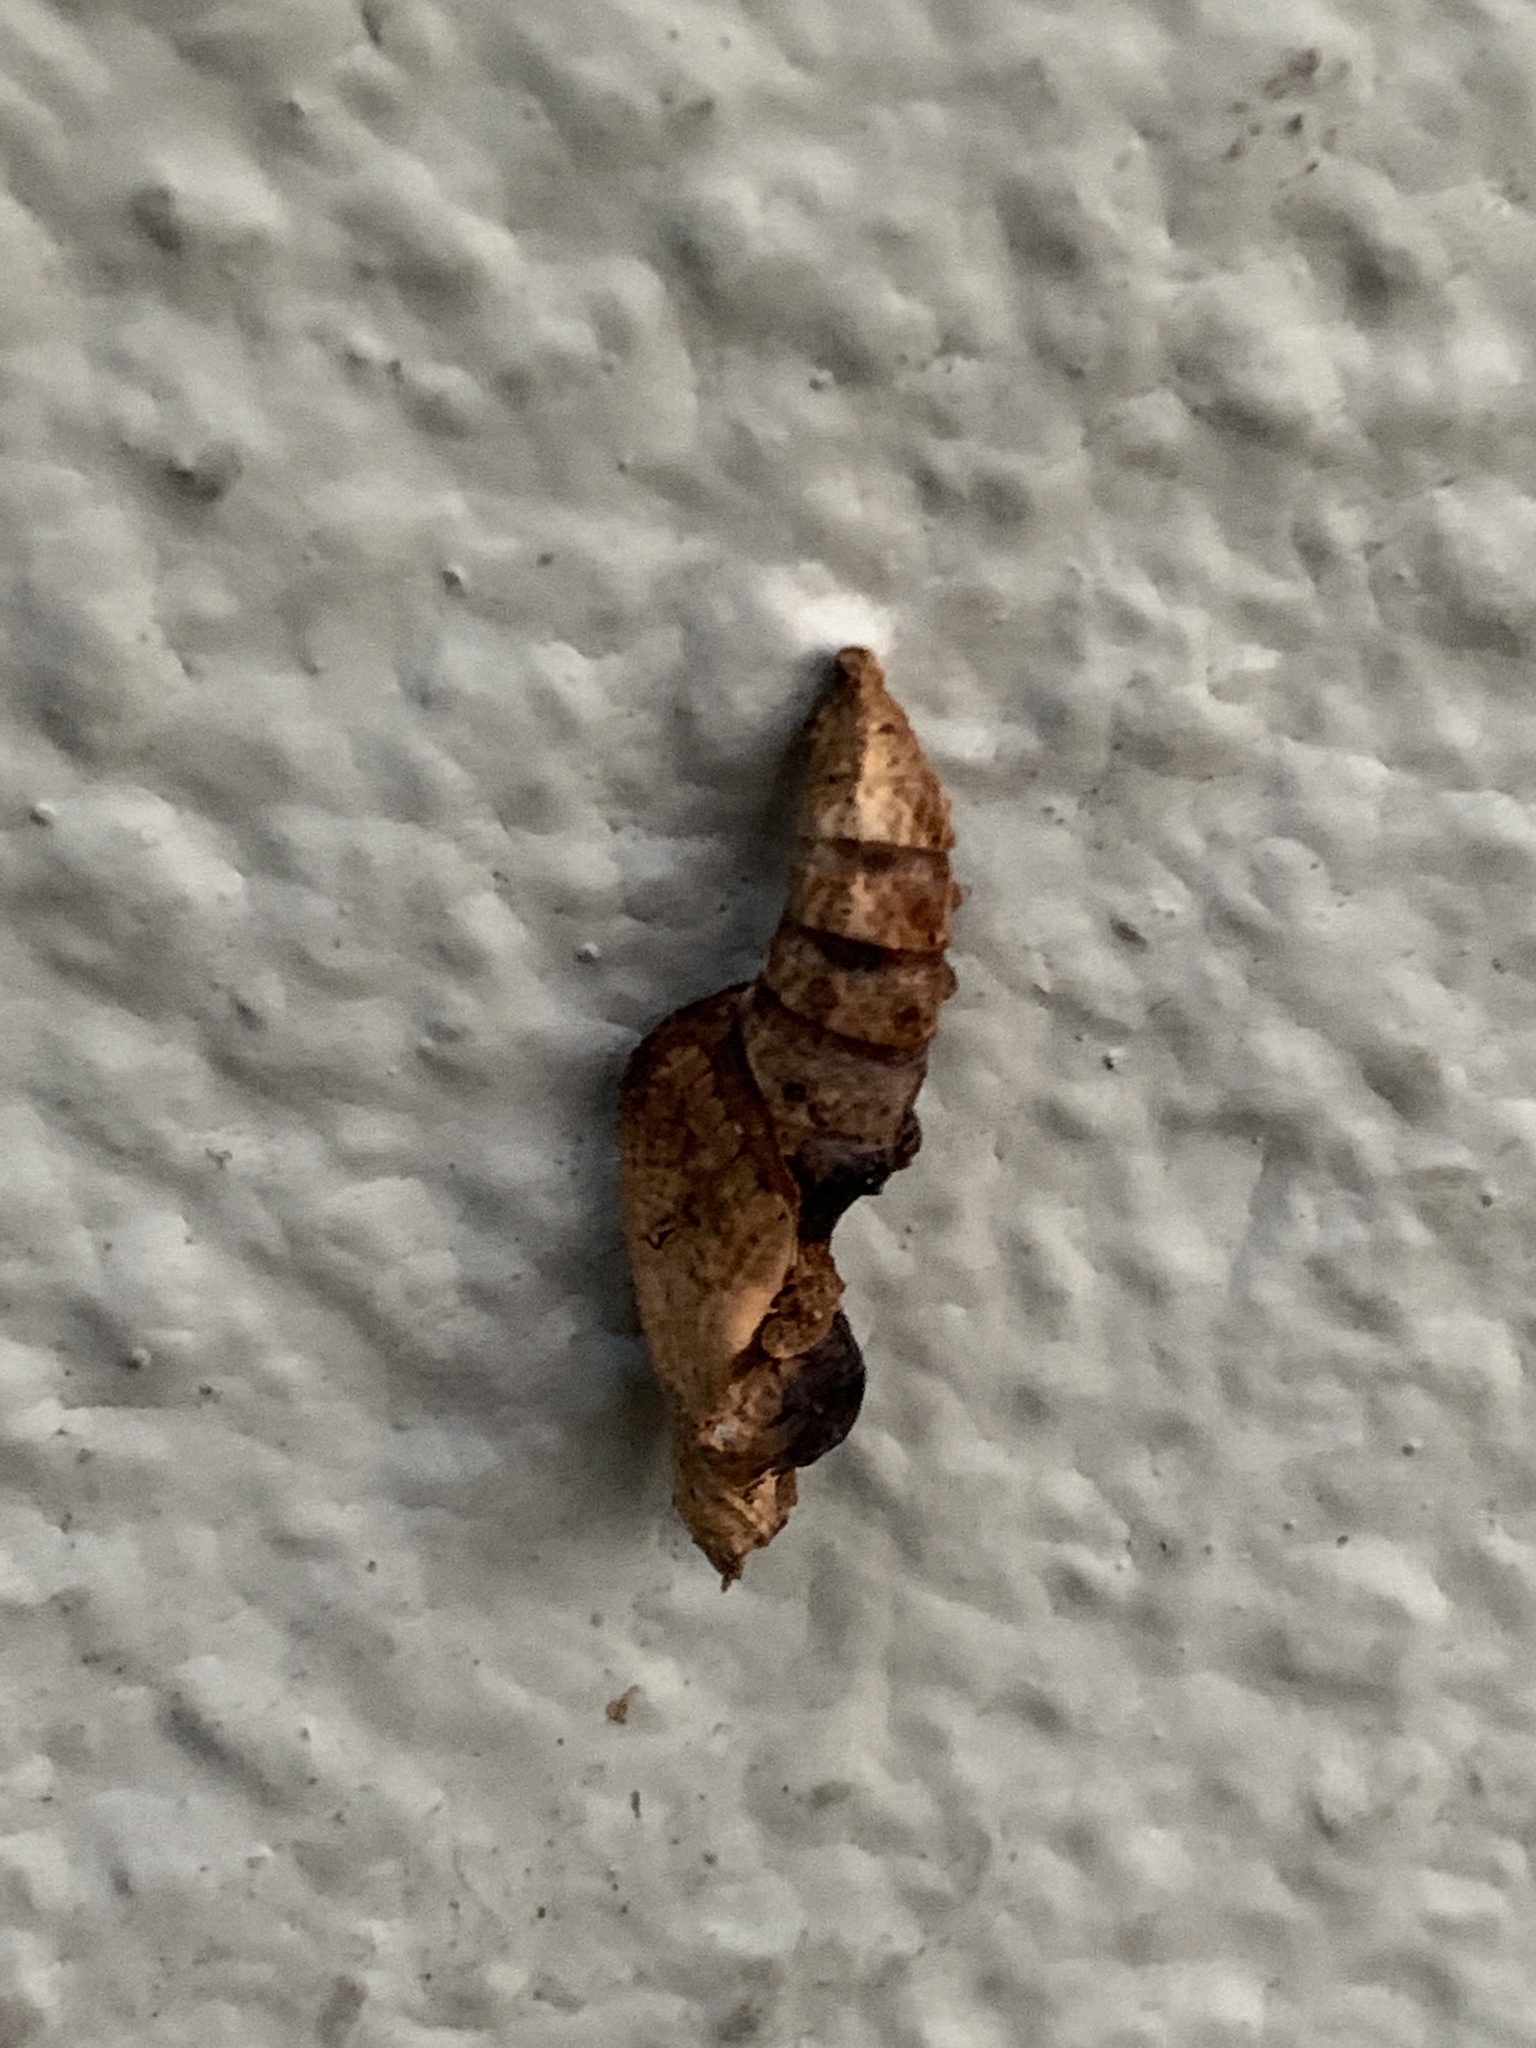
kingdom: Animalia
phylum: Arthropoda
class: Insecta
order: Lepidoptera
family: Nymphalidae
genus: Dione
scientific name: Dione vanillae
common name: Gulf fritillary
